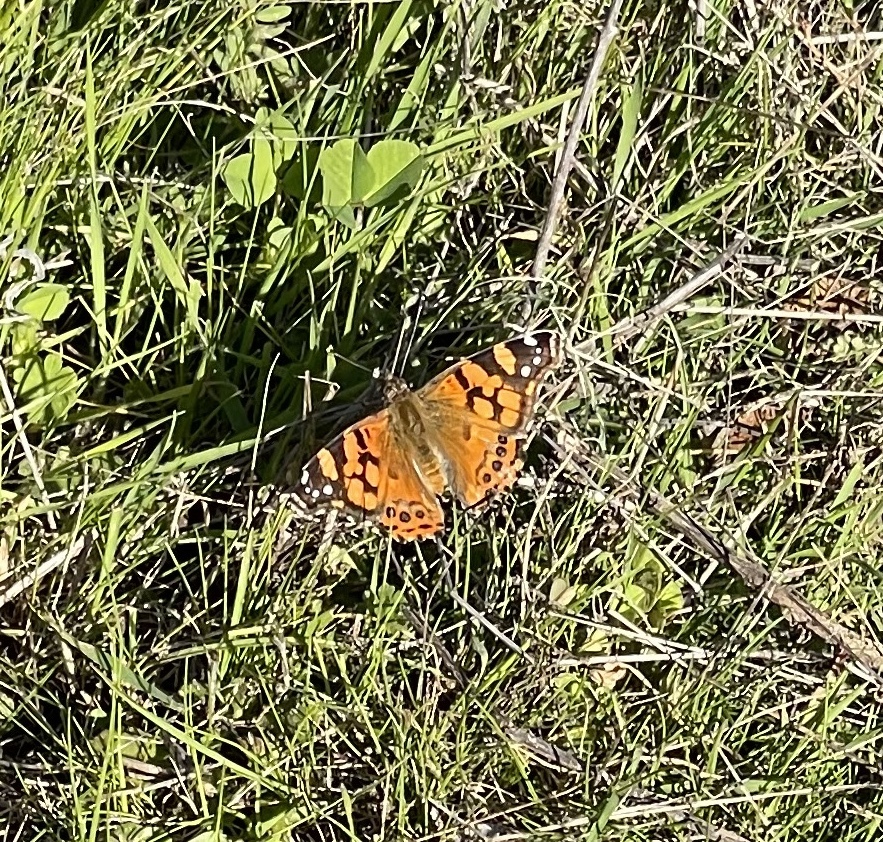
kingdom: Animalia
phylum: Arthropoda
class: Insecta
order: Lepidoptera
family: Nymphalidae
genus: Vanessa
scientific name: Vanessa annabella
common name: West coast lady
